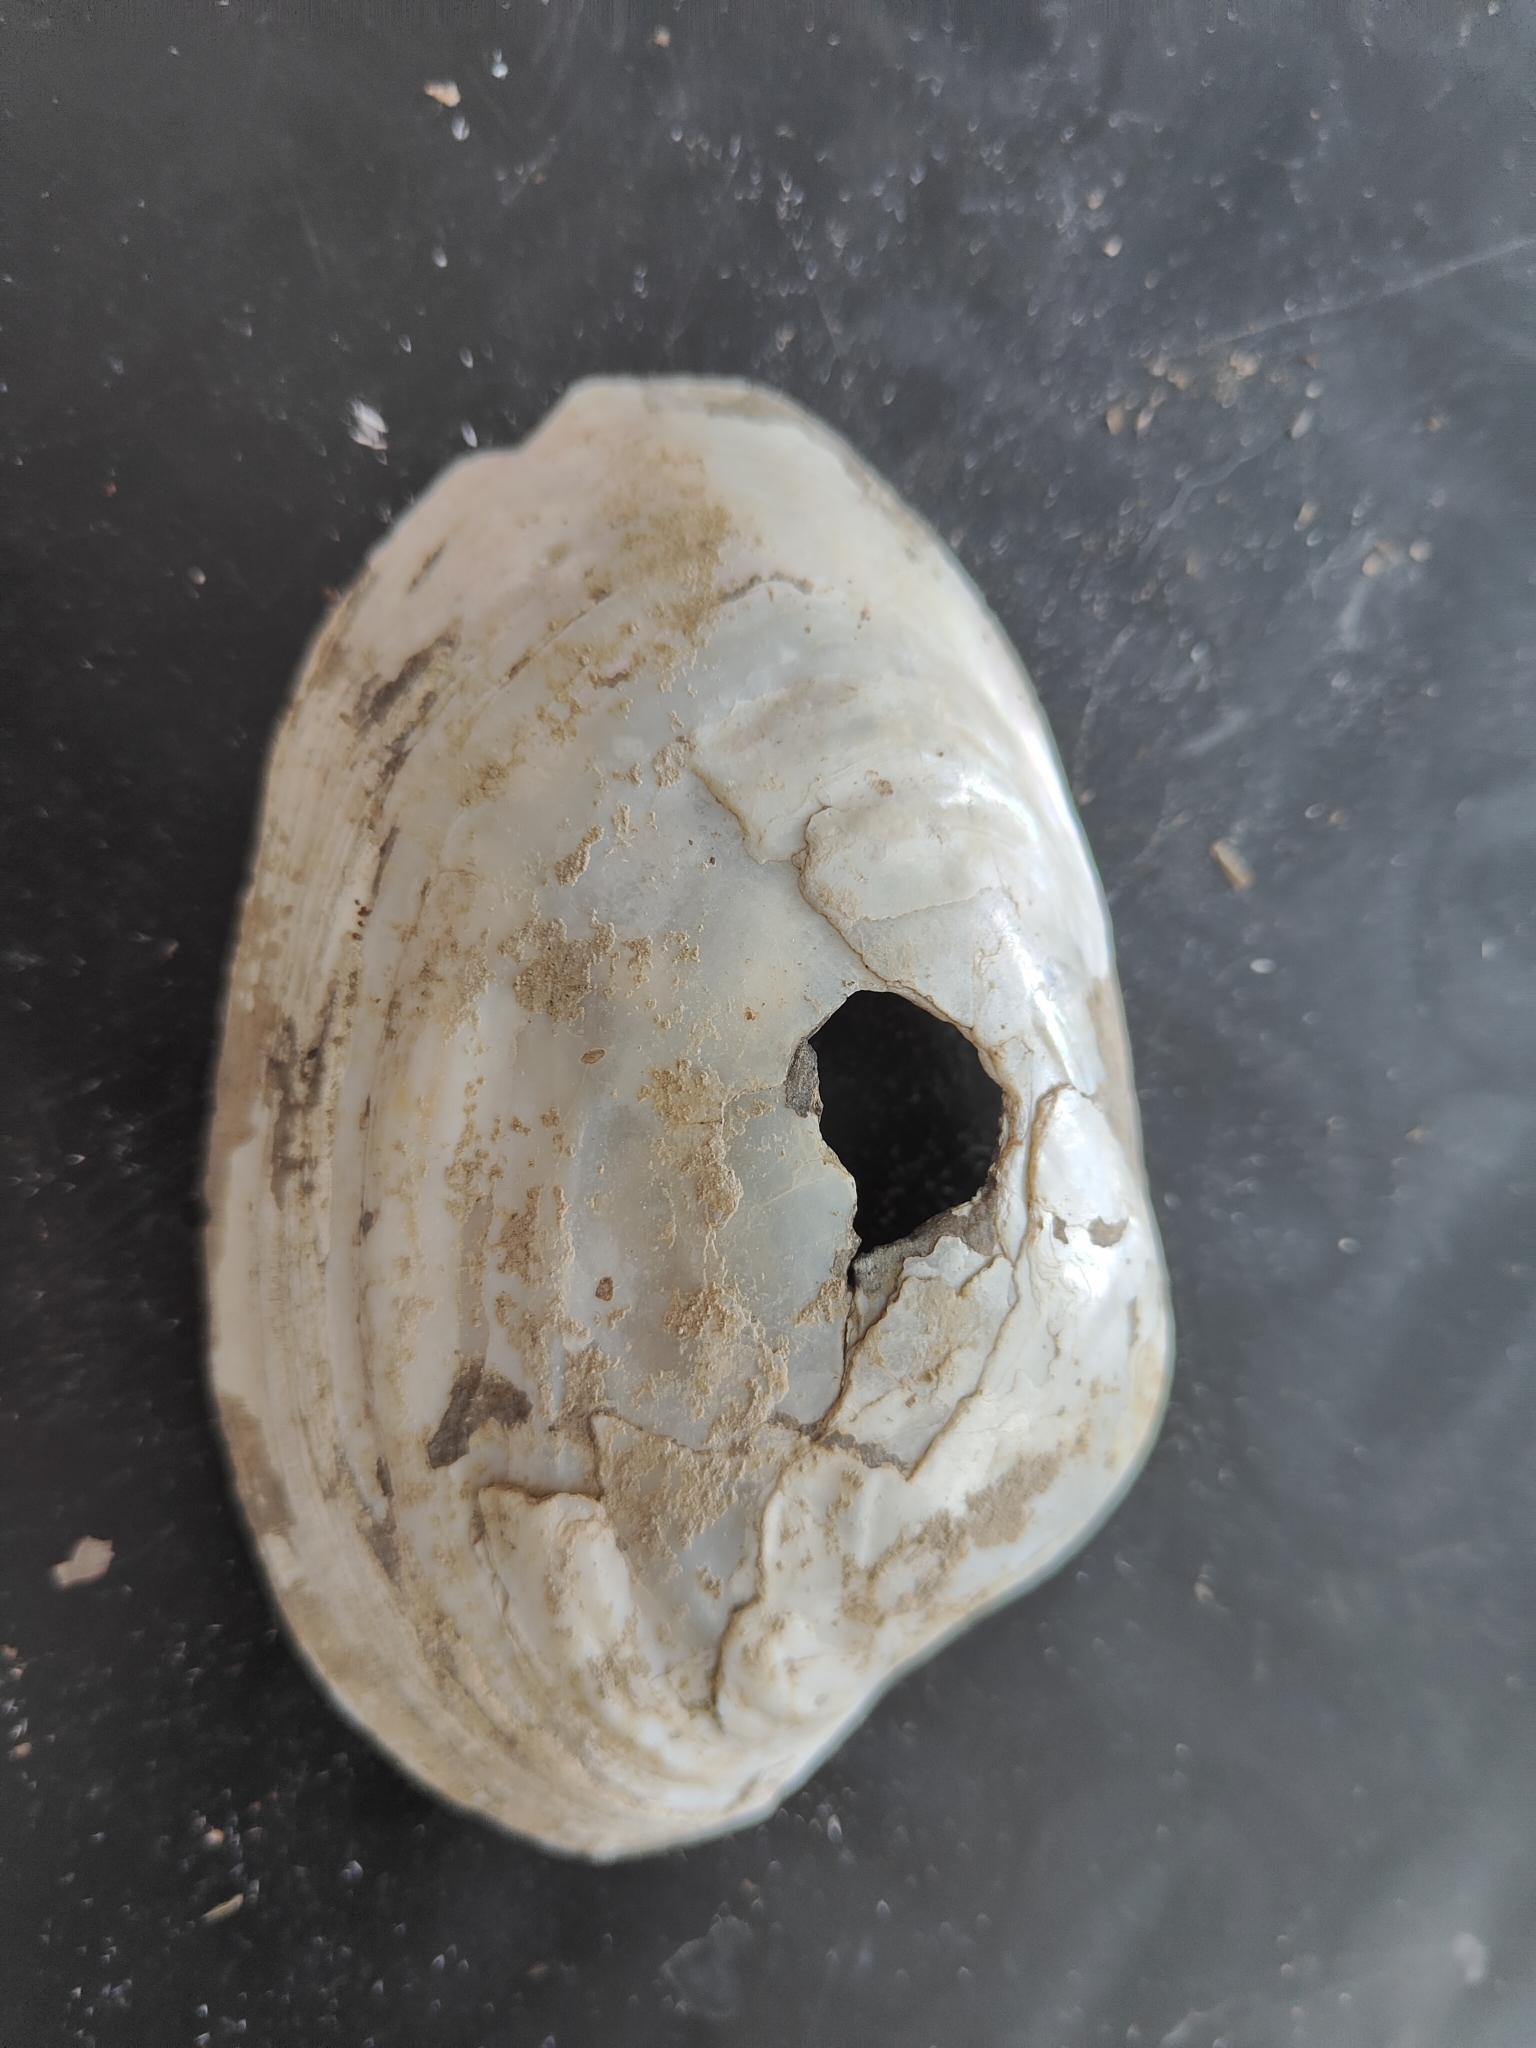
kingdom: Animalia
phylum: Mollusca
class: Bivalvia
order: Unionida
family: Unionidae
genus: Lampsilis
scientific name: Lampsilis cardium
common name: Plain pocketbook
